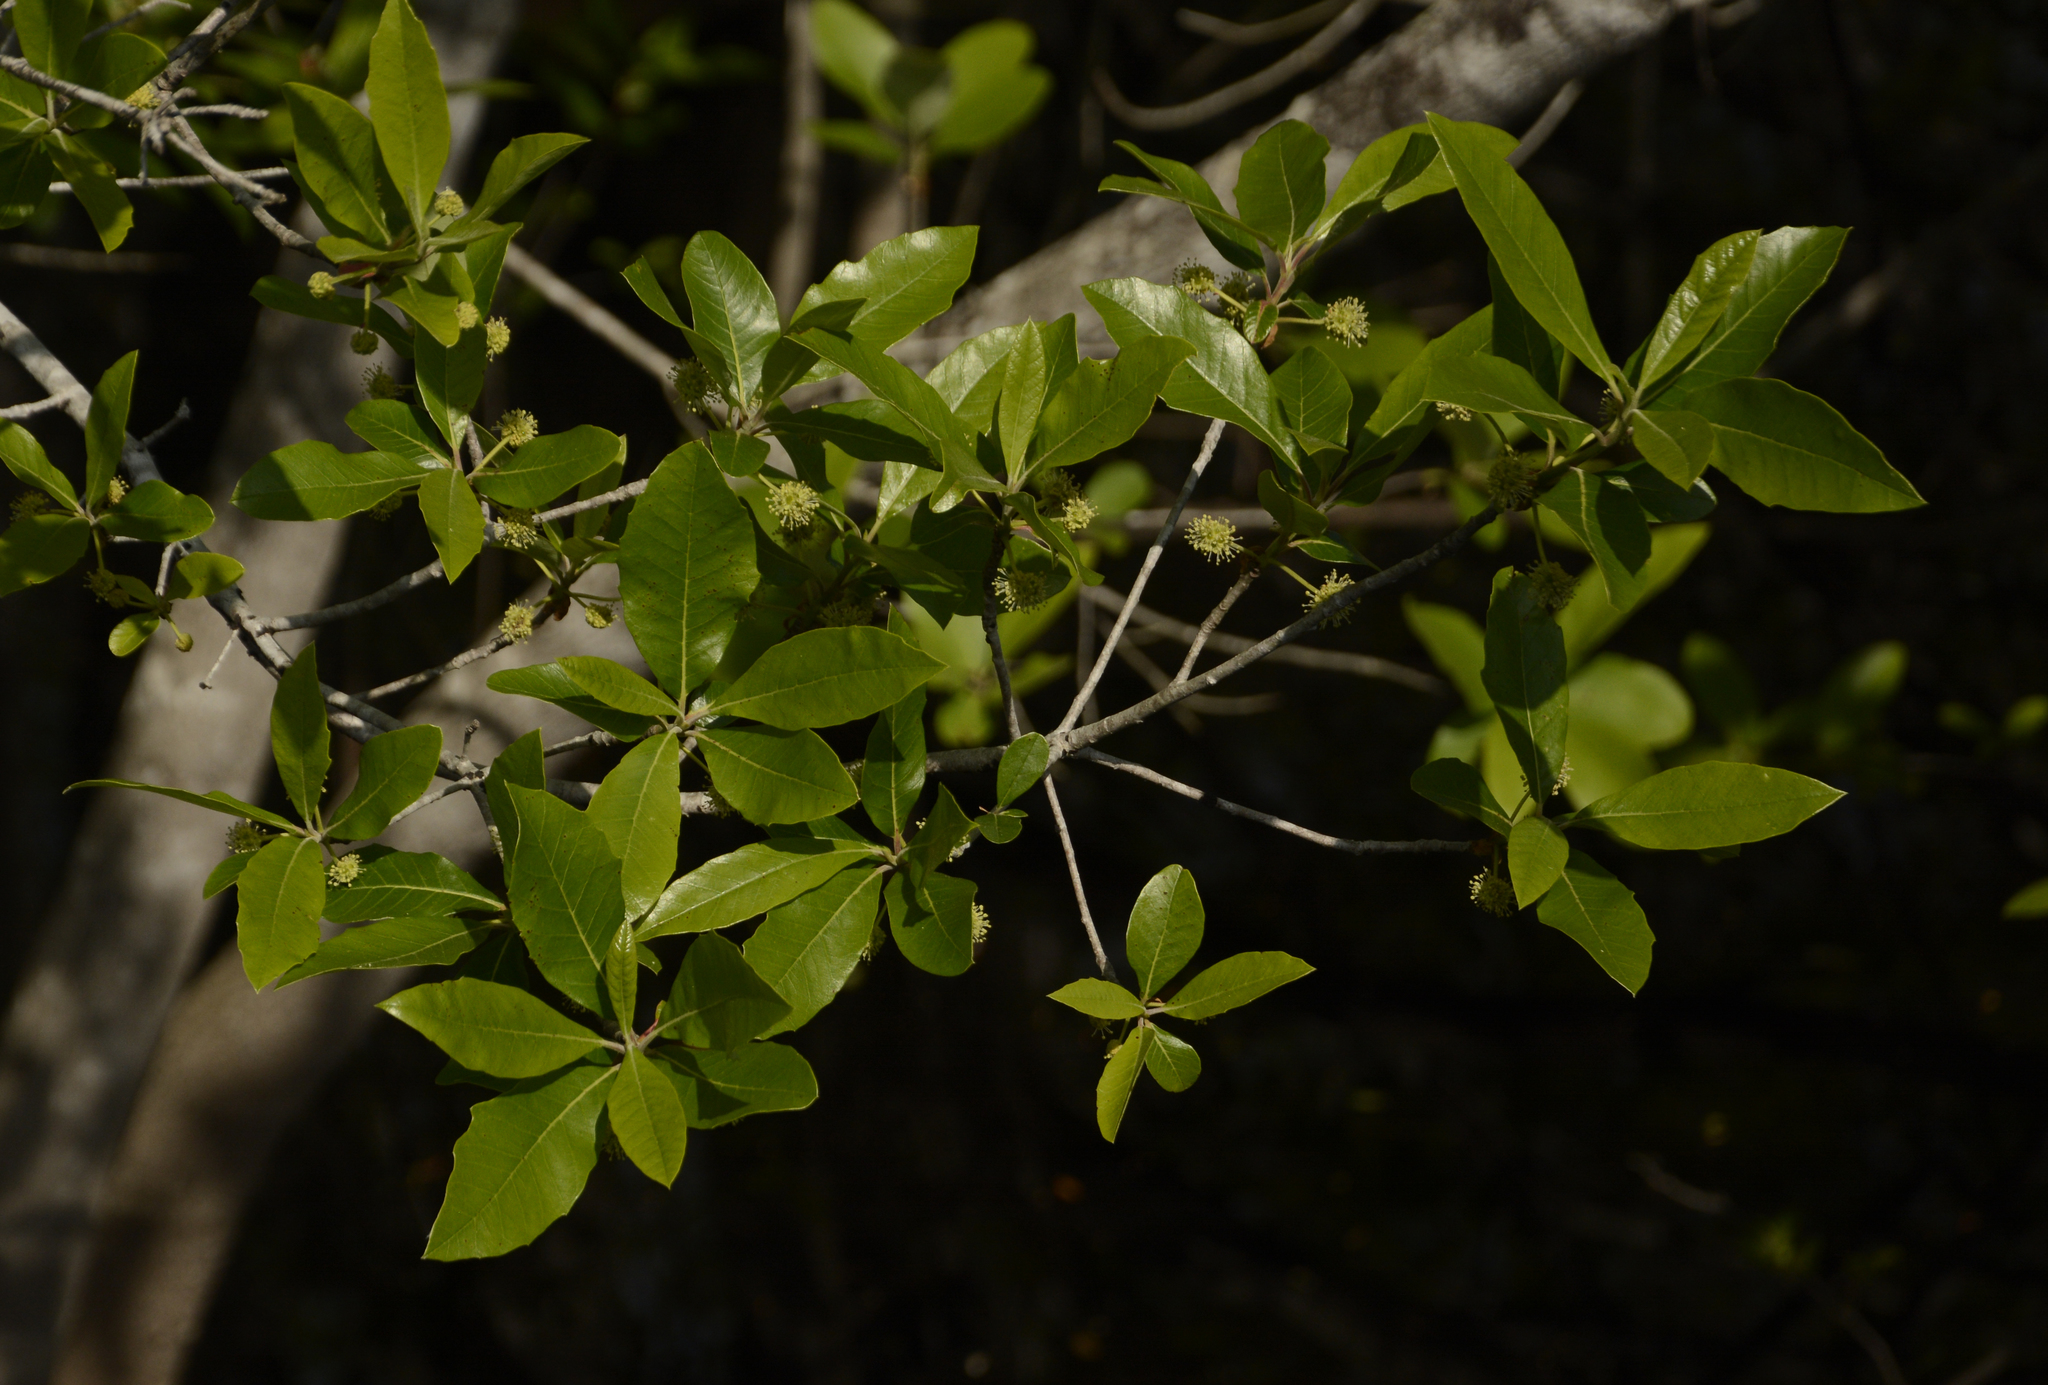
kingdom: Plantae
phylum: Tracheophyta
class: Magnoliopsida
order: Cornales
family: Nyssaceae
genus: Nyssa
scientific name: Nyssa ogeche
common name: Ogeechee tupelo
